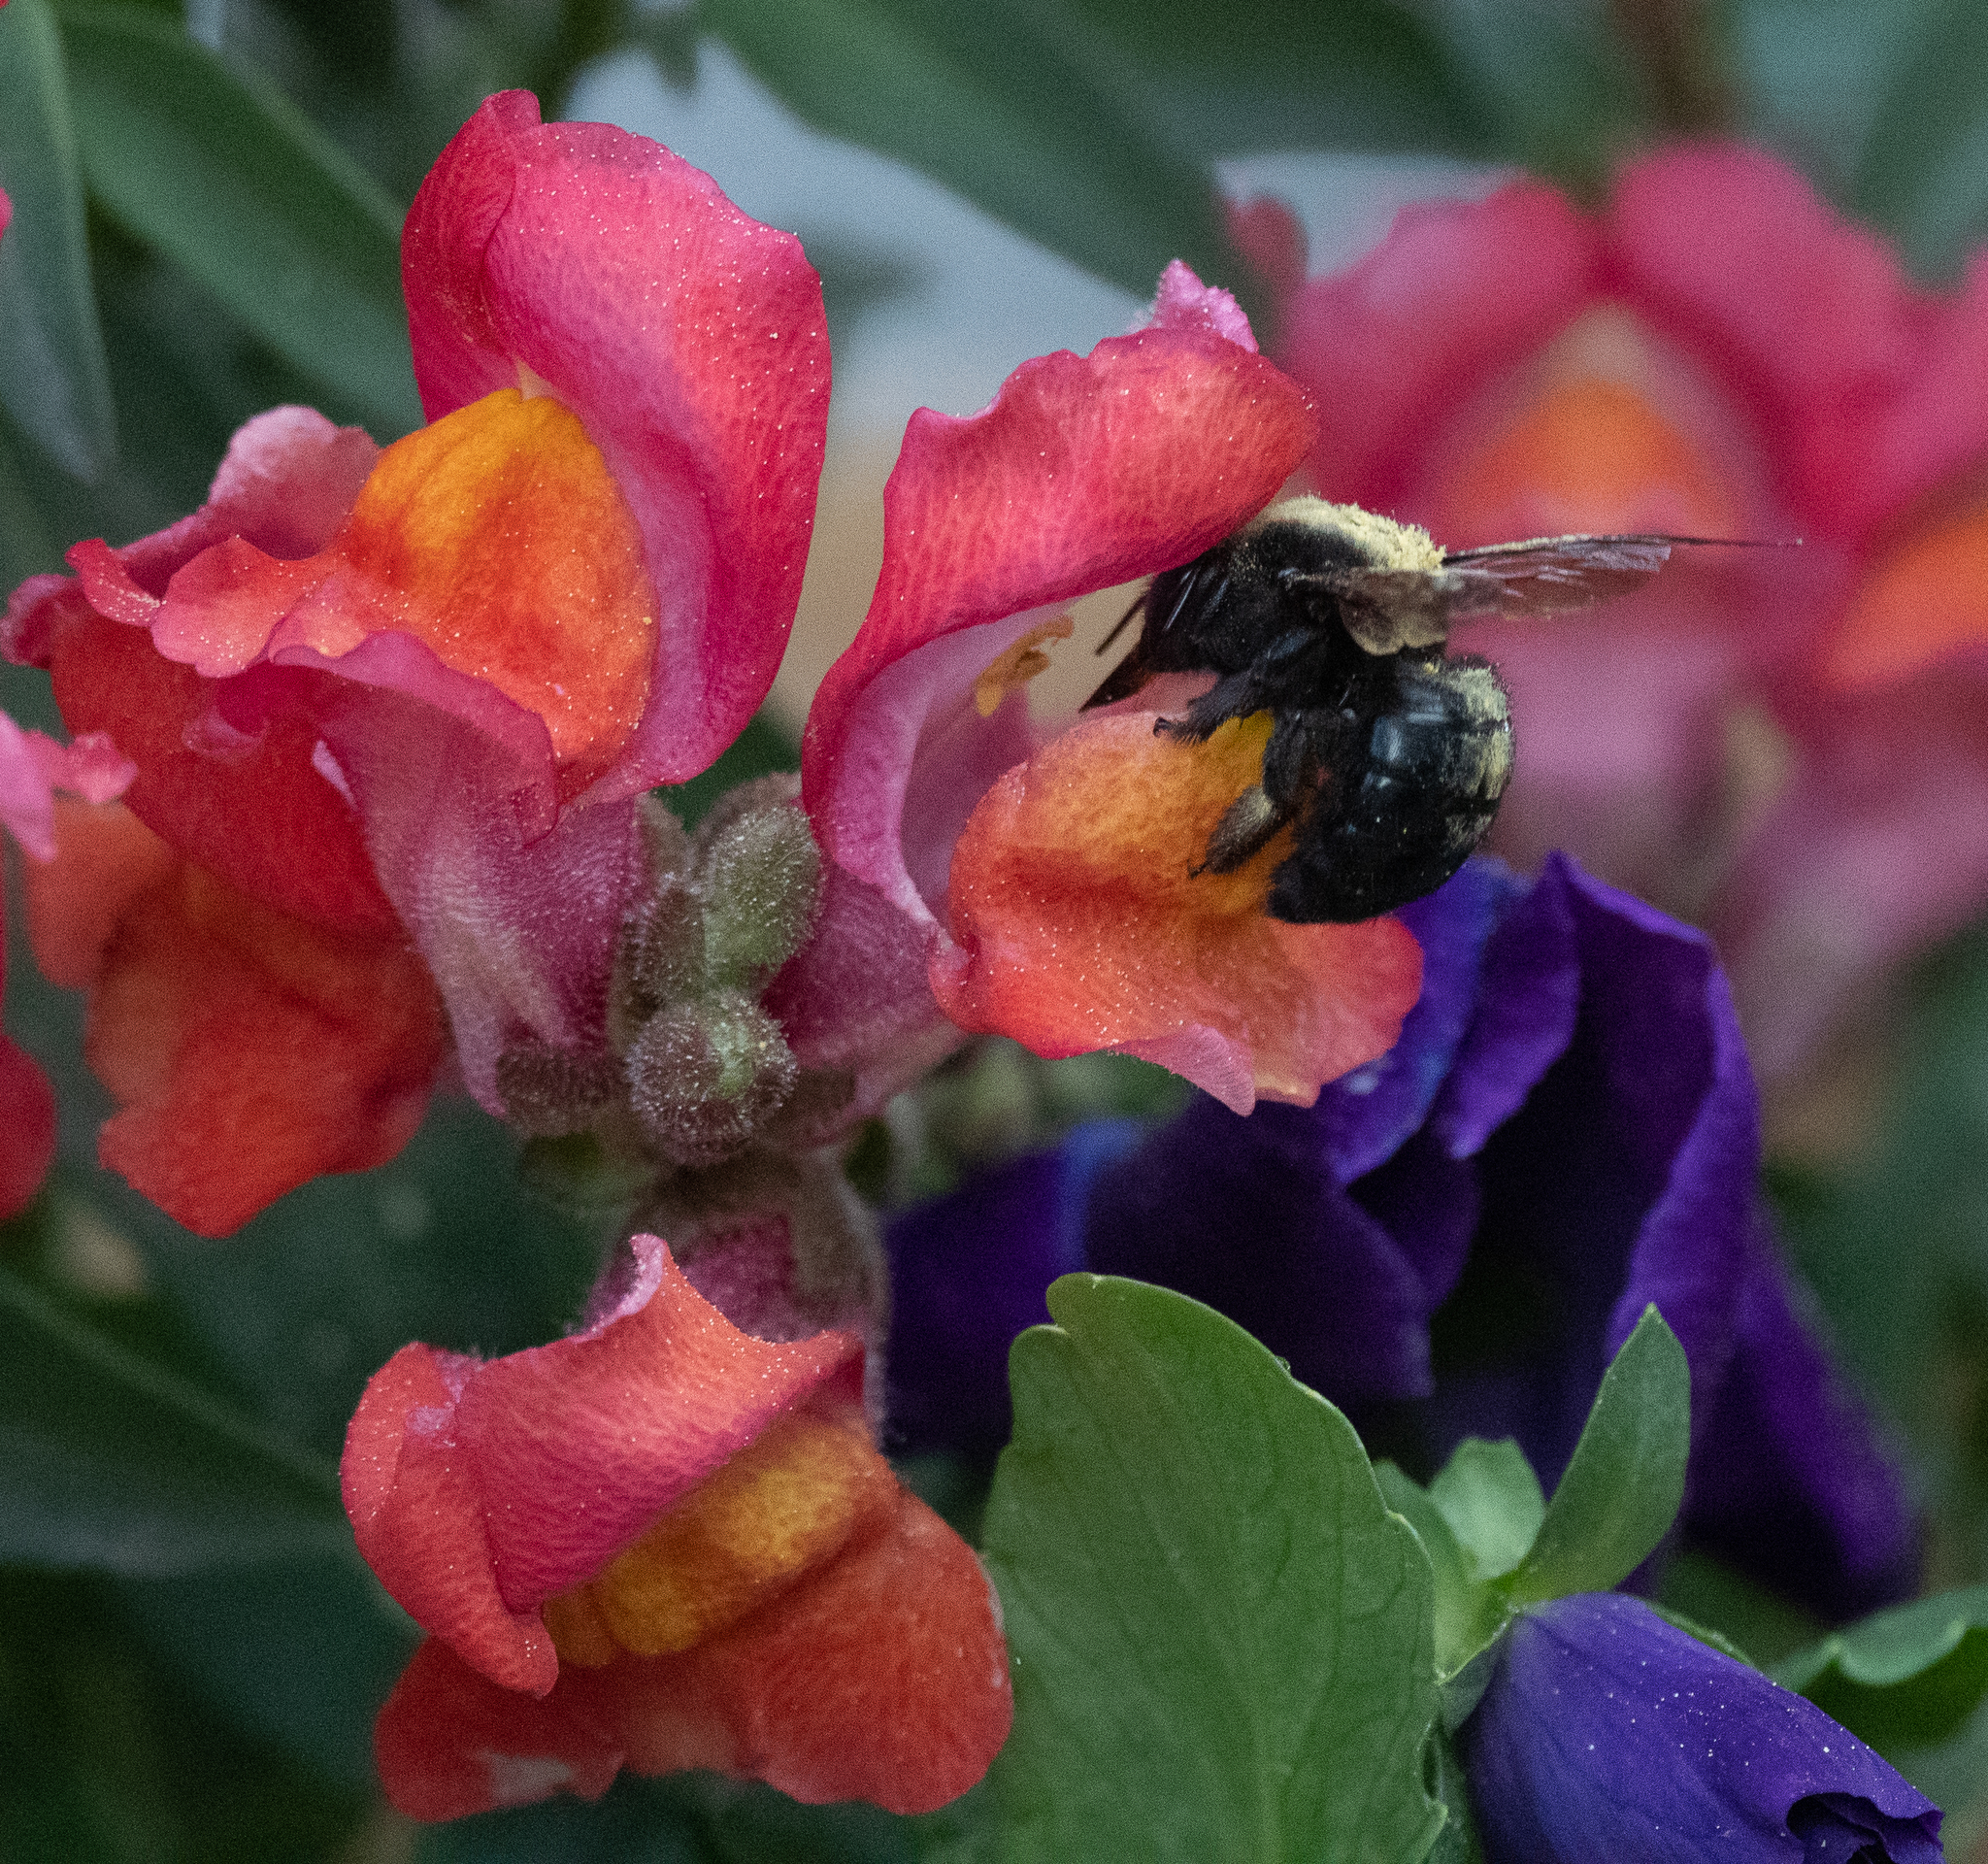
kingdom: Animalia
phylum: Arthropoda
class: Insecta
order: Hymenoptera
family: Apidae
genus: Xylocopa
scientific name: Xylocopa tabaniformis
